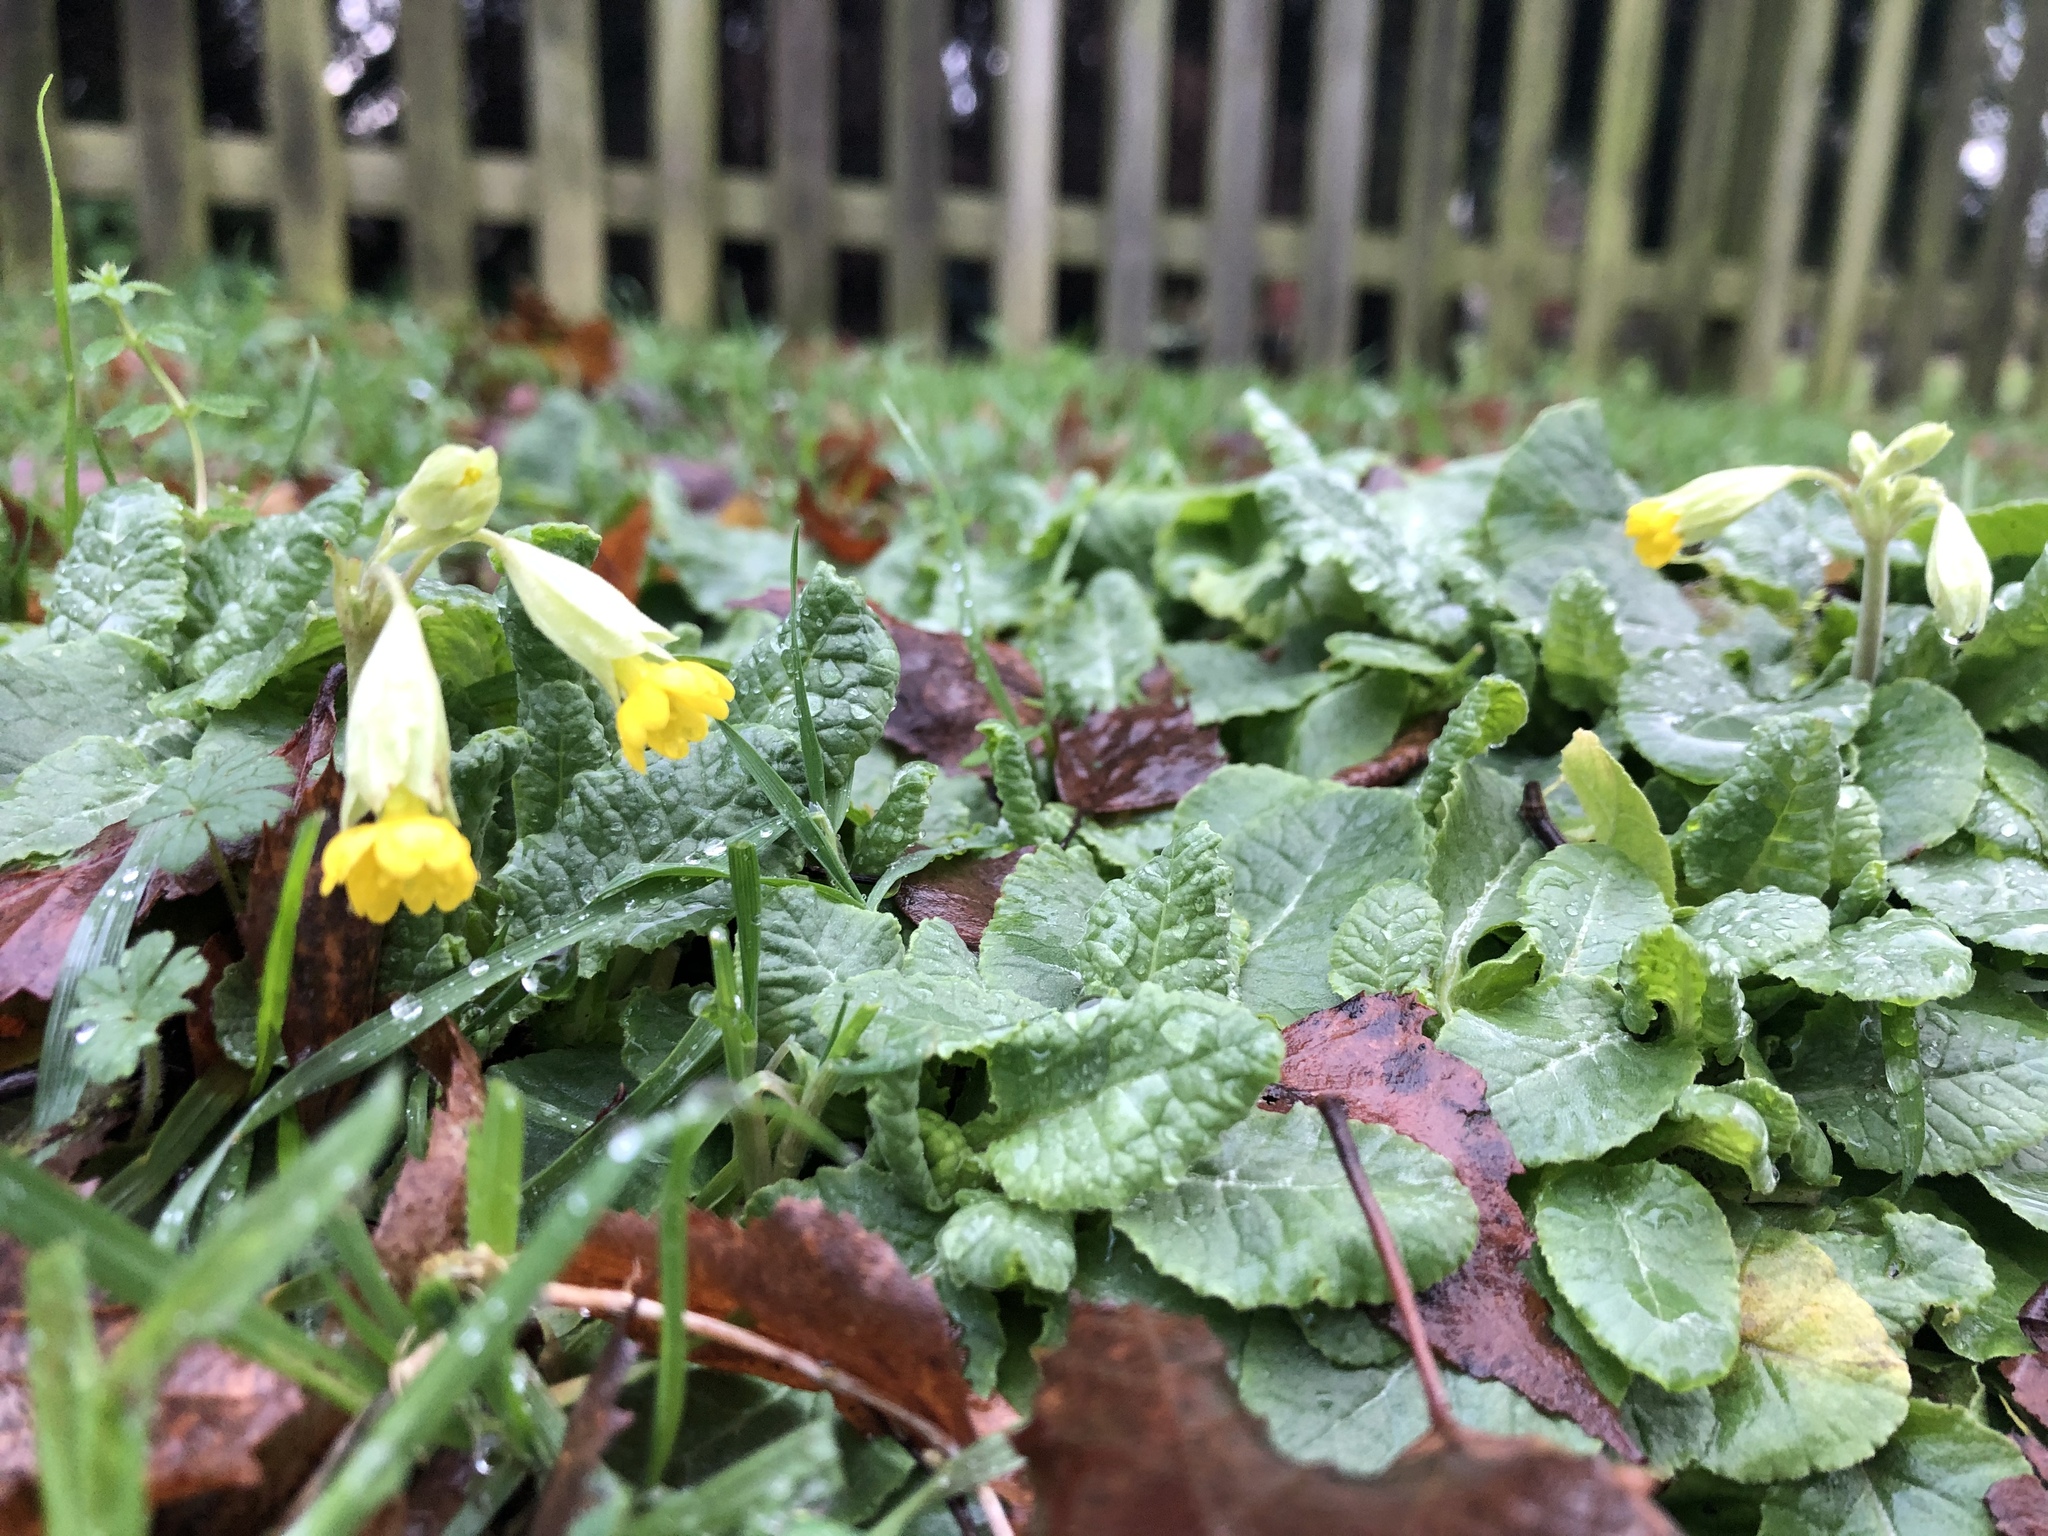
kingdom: Plantae
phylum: Tracheophyta
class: Magnoliopsida
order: Ericales
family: Primulaceae
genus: Primula
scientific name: Primula veris
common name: Cowslip
